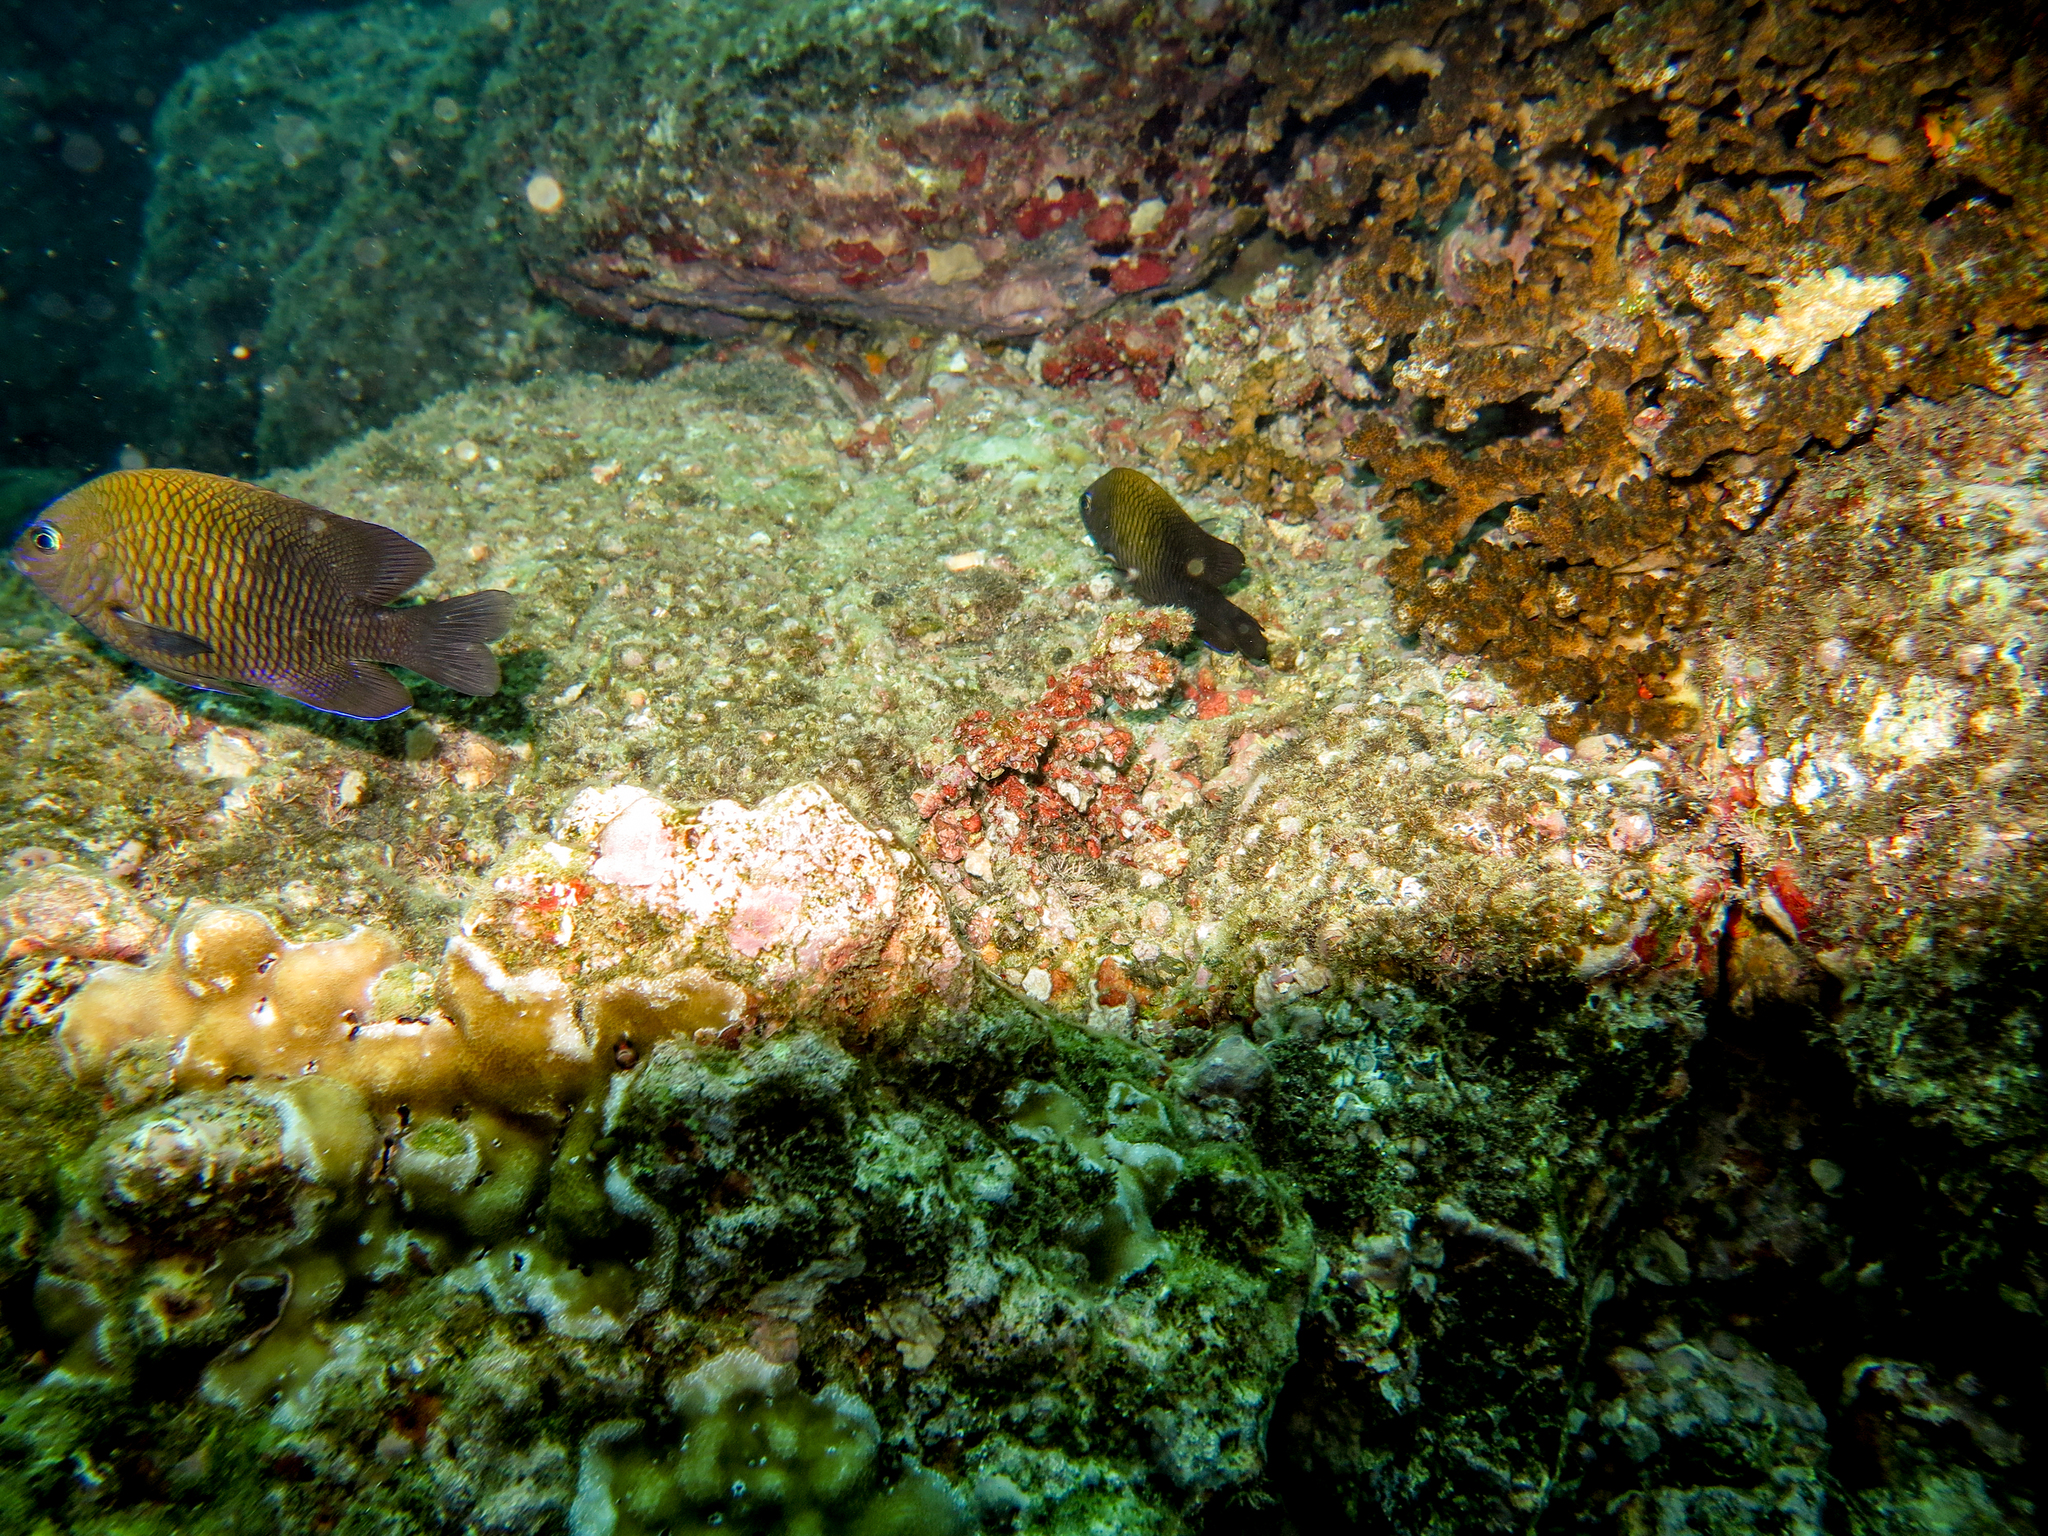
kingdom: Animalia
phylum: Chordata
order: Perciformes
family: Pomacentridae
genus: Stegastes
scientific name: Stegastes acapulcoensis
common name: Acapulco damselfish
